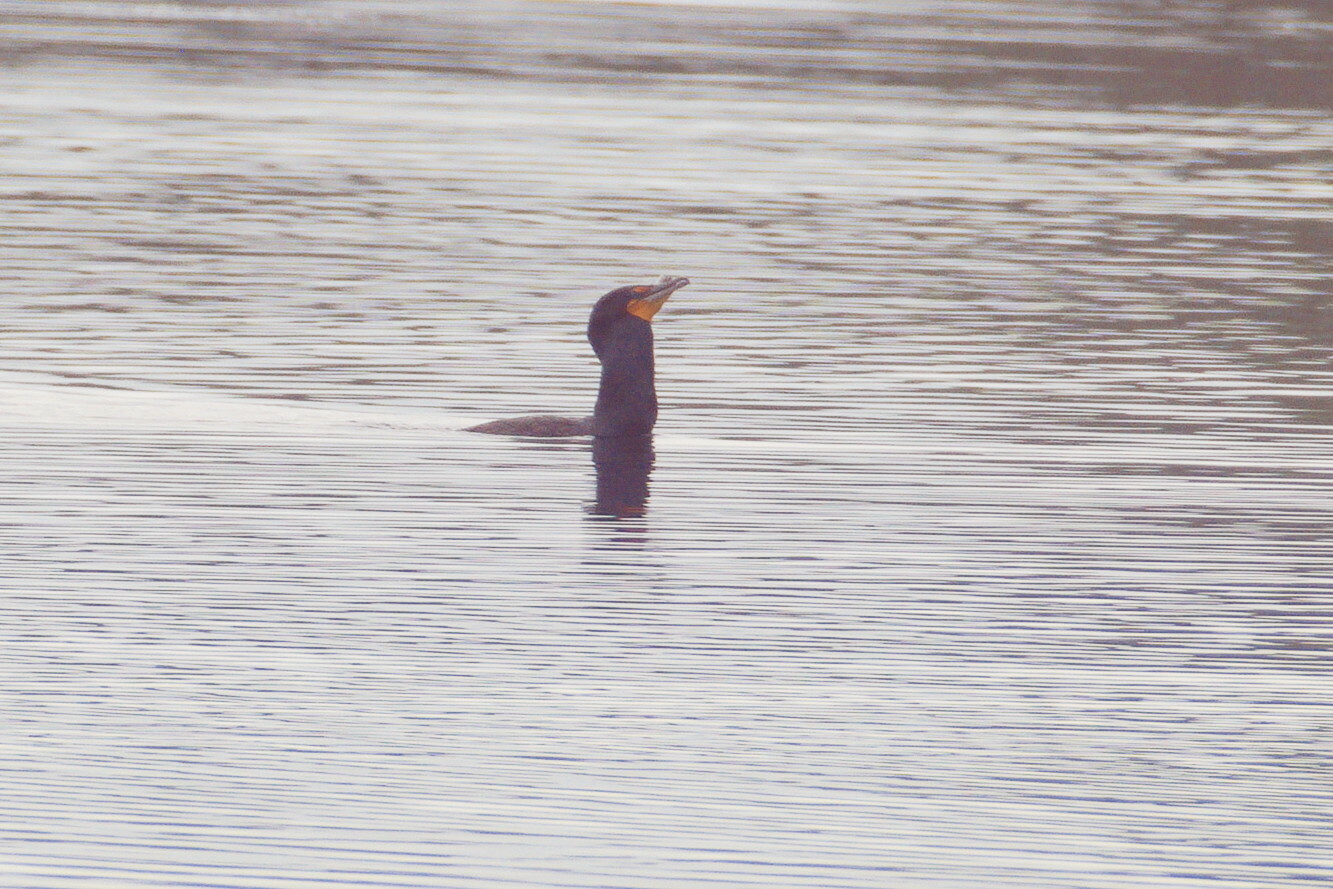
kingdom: Animalia
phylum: Chordata
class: Aves
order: Suliformes
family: Phalacrocoracidae
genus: Phalacrocorax
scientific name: Phalacrocorax auritus
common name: Double-crested cormorant
